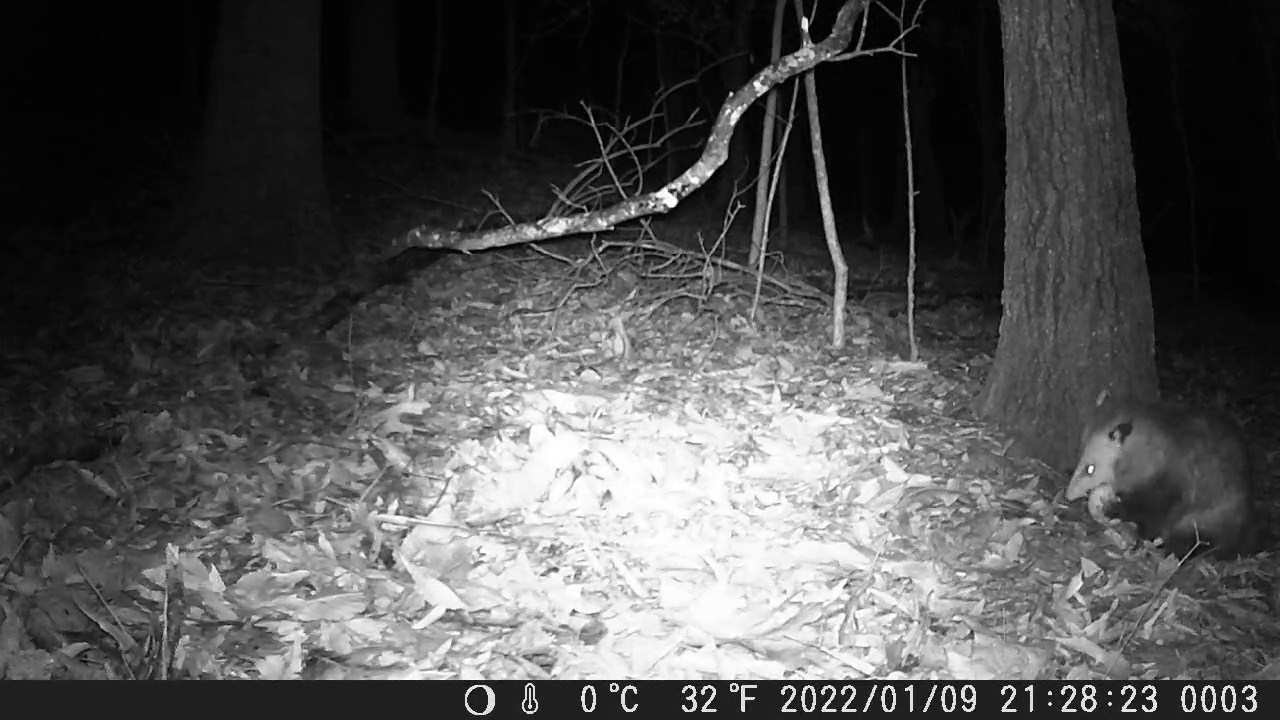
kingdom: Animalia
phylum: Chordata
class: Mammalia
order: Didelphimorphia
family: Didelphidae
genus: Didelphis
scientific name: Didelphis virginiana
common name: Virginia opossum
